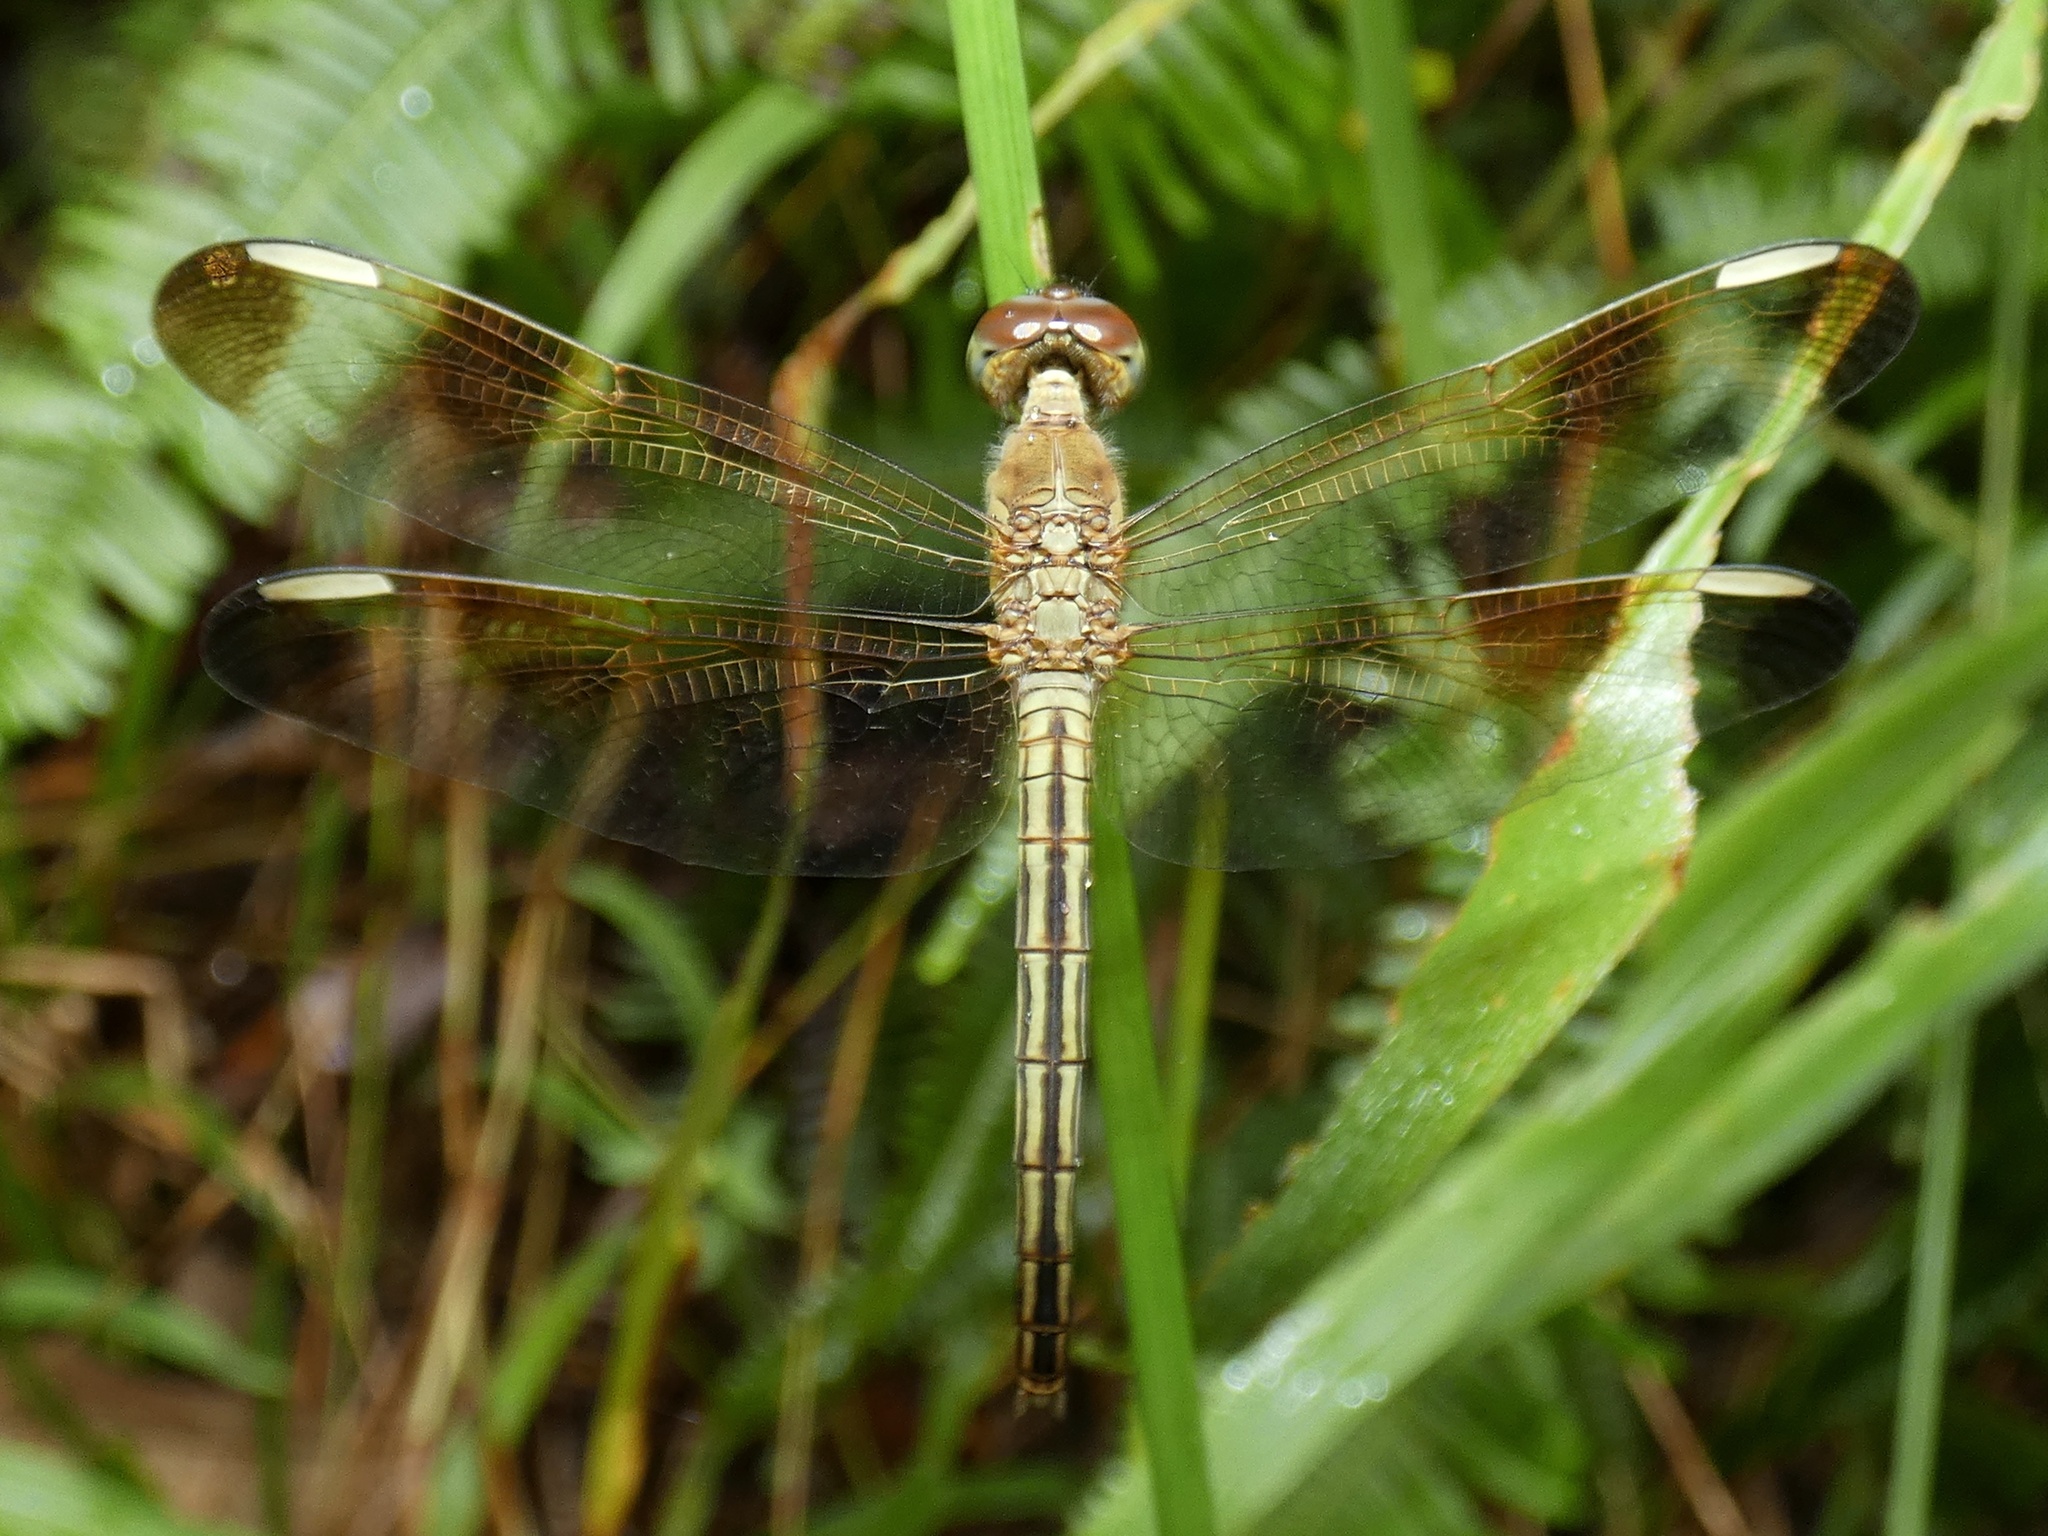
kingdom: Animalia
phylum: Arthropoda
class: Insecta
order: Odonata
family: Libellulidae
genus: Neurothemis
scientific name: Neurothemis stigmatizans
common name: Painted grasshawk
